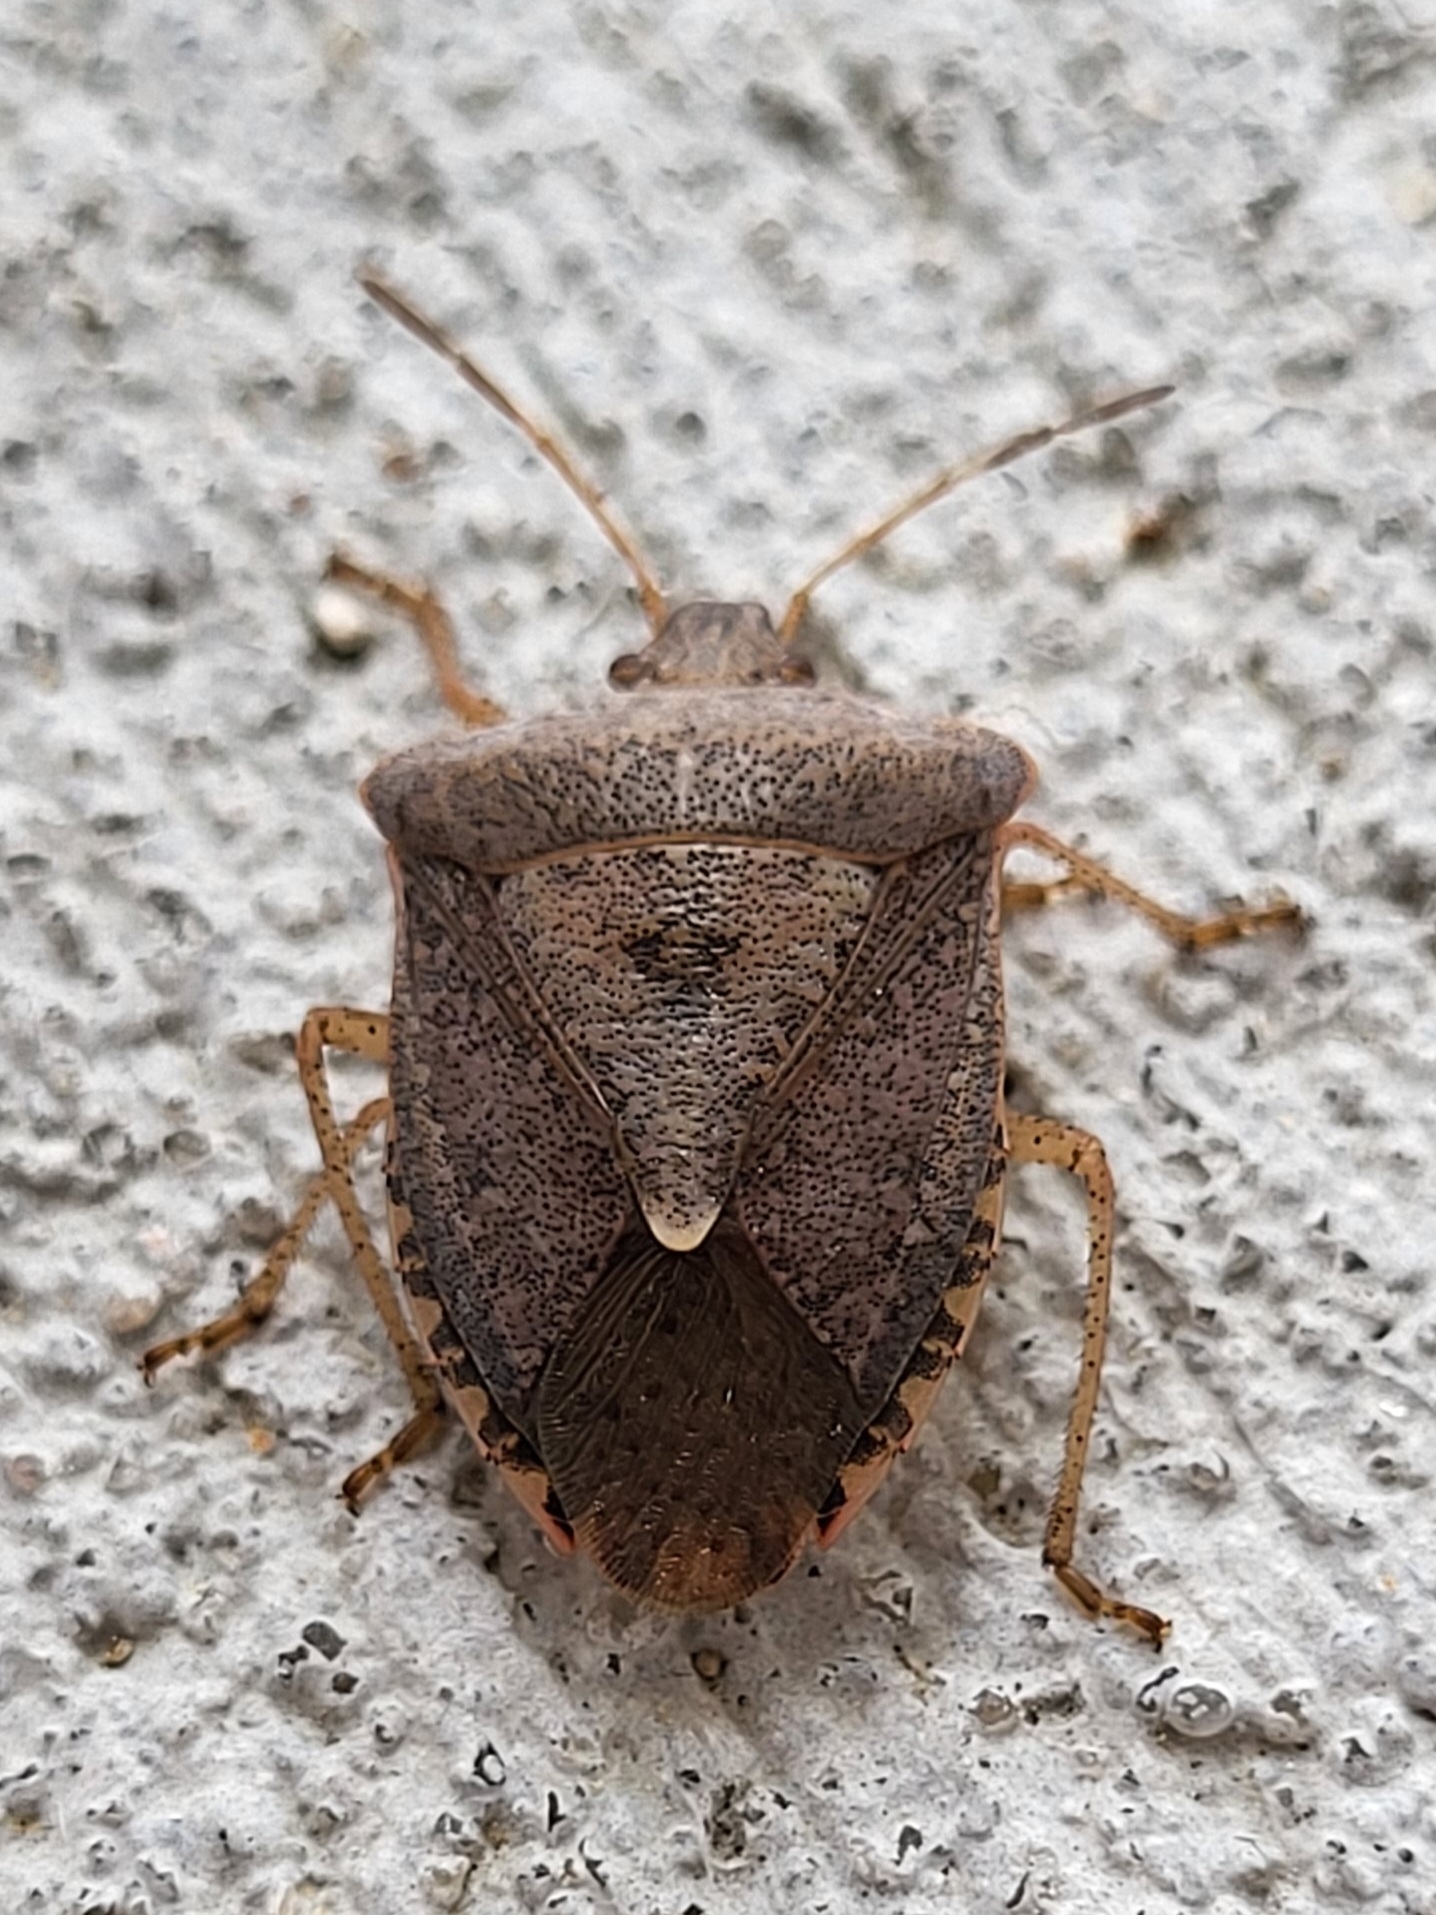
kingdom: Animalia
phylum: Arthropoda
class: Insecta
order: Hemiptera
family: Pentatomidae
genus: Euschistus
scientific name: Euschistus
